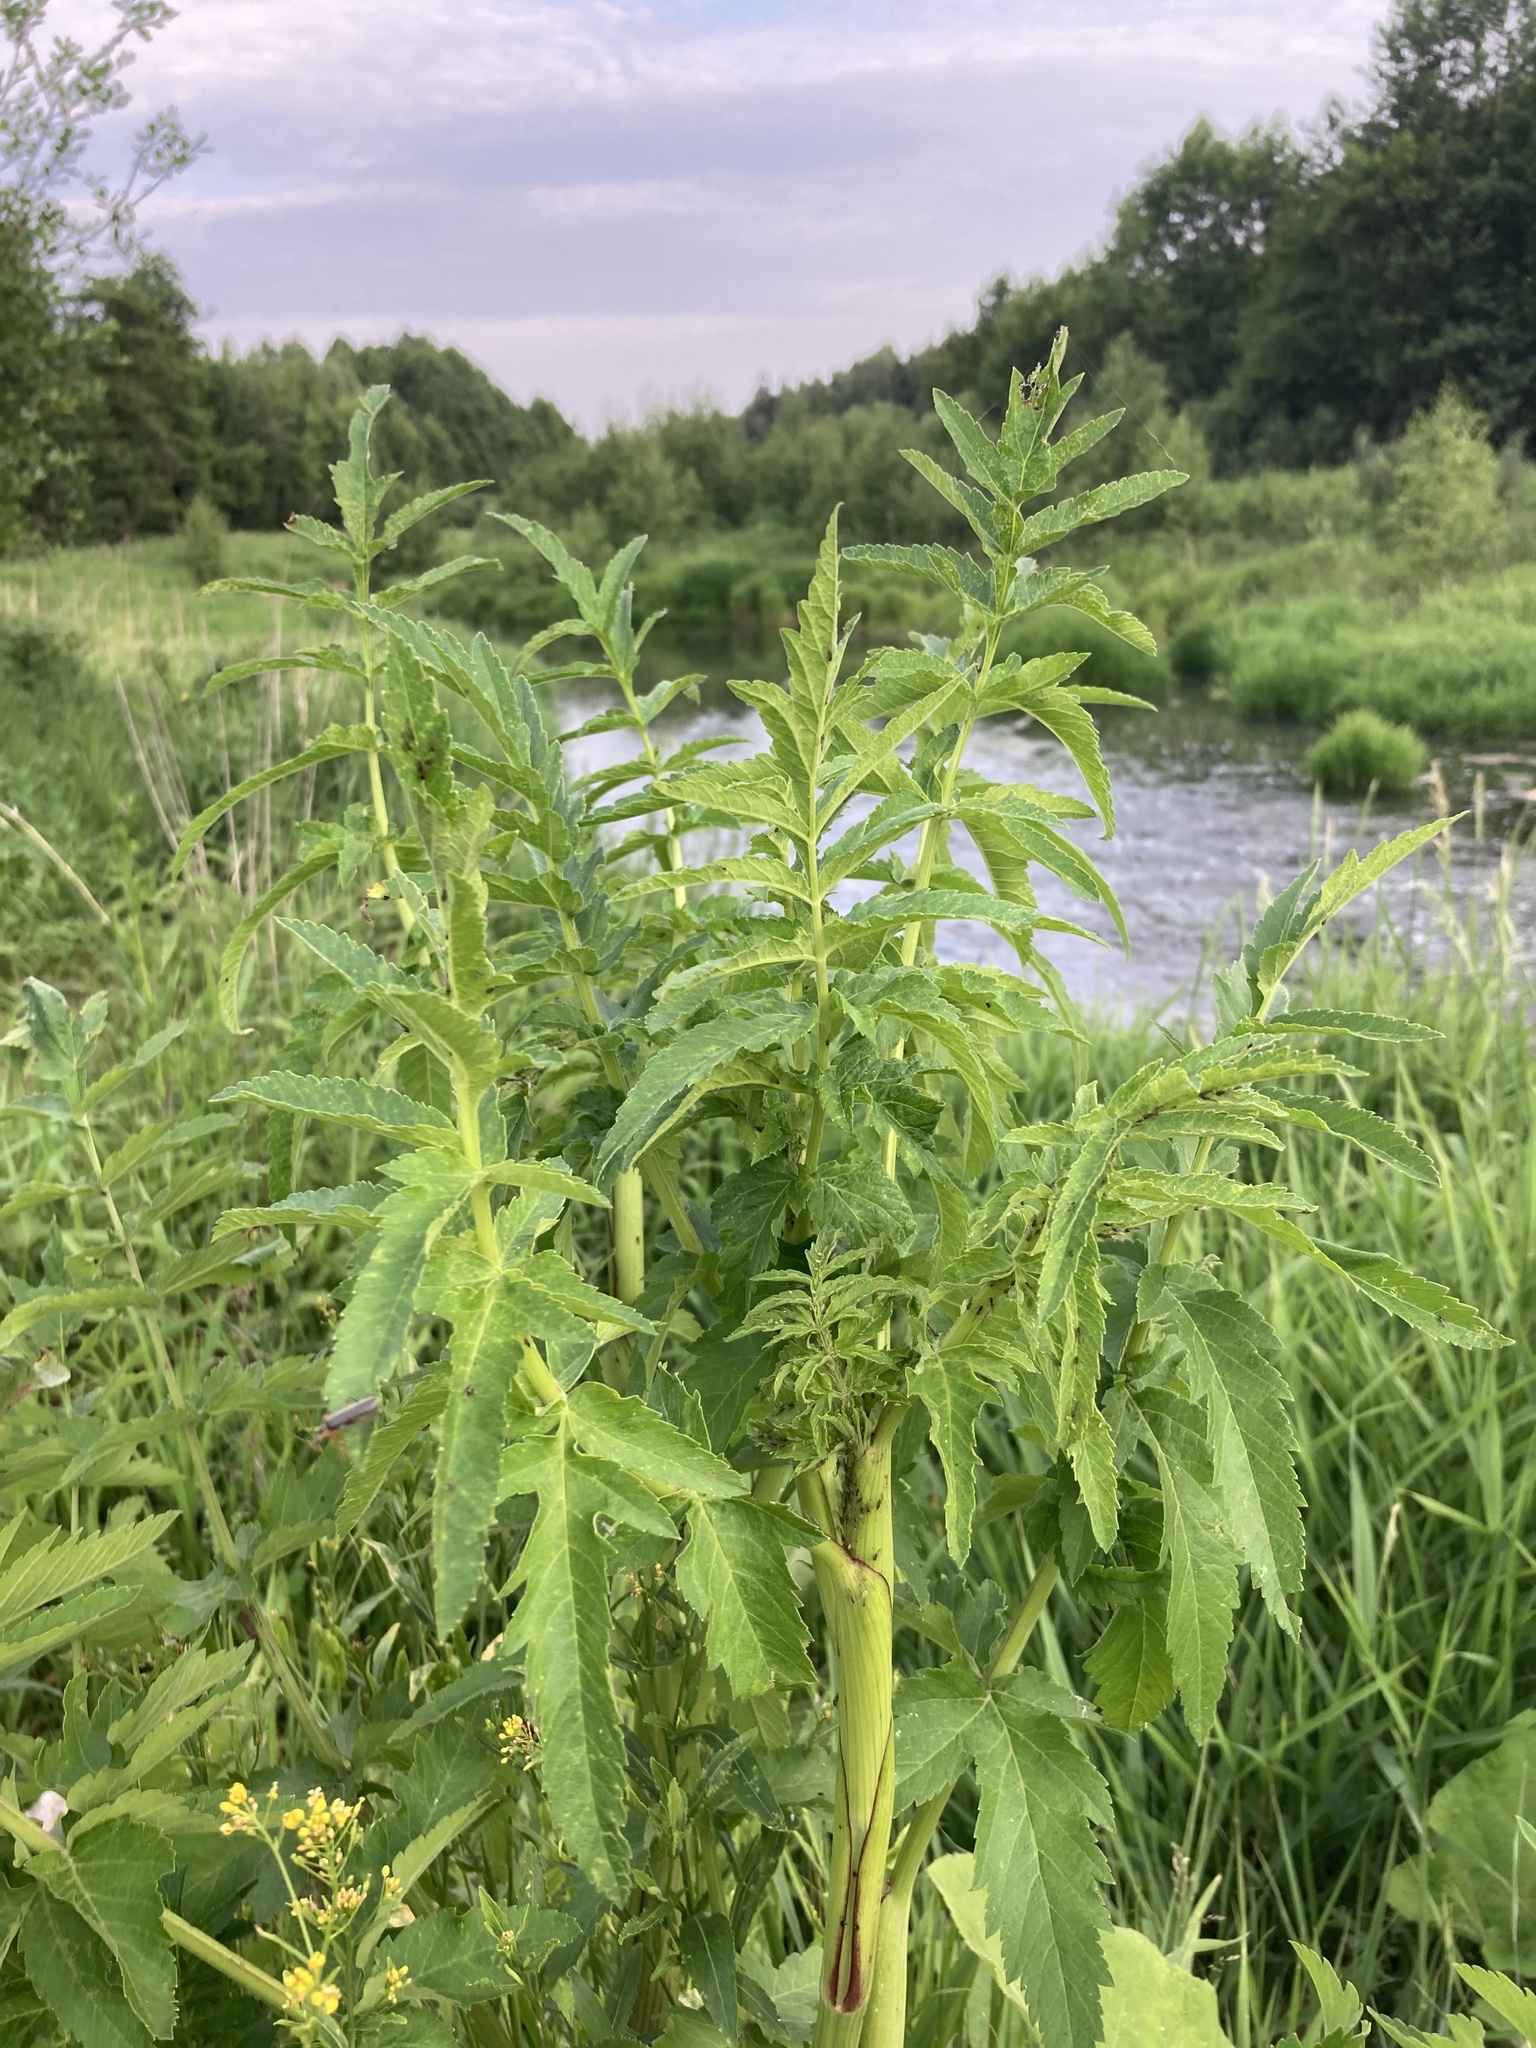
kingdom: Plantae
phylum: Tracheophyta
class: Magnoliopsida
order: Apiales
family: Apiaceae
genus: Pastinaca
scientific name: Pastinaca sativa
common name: Wild parsnip
